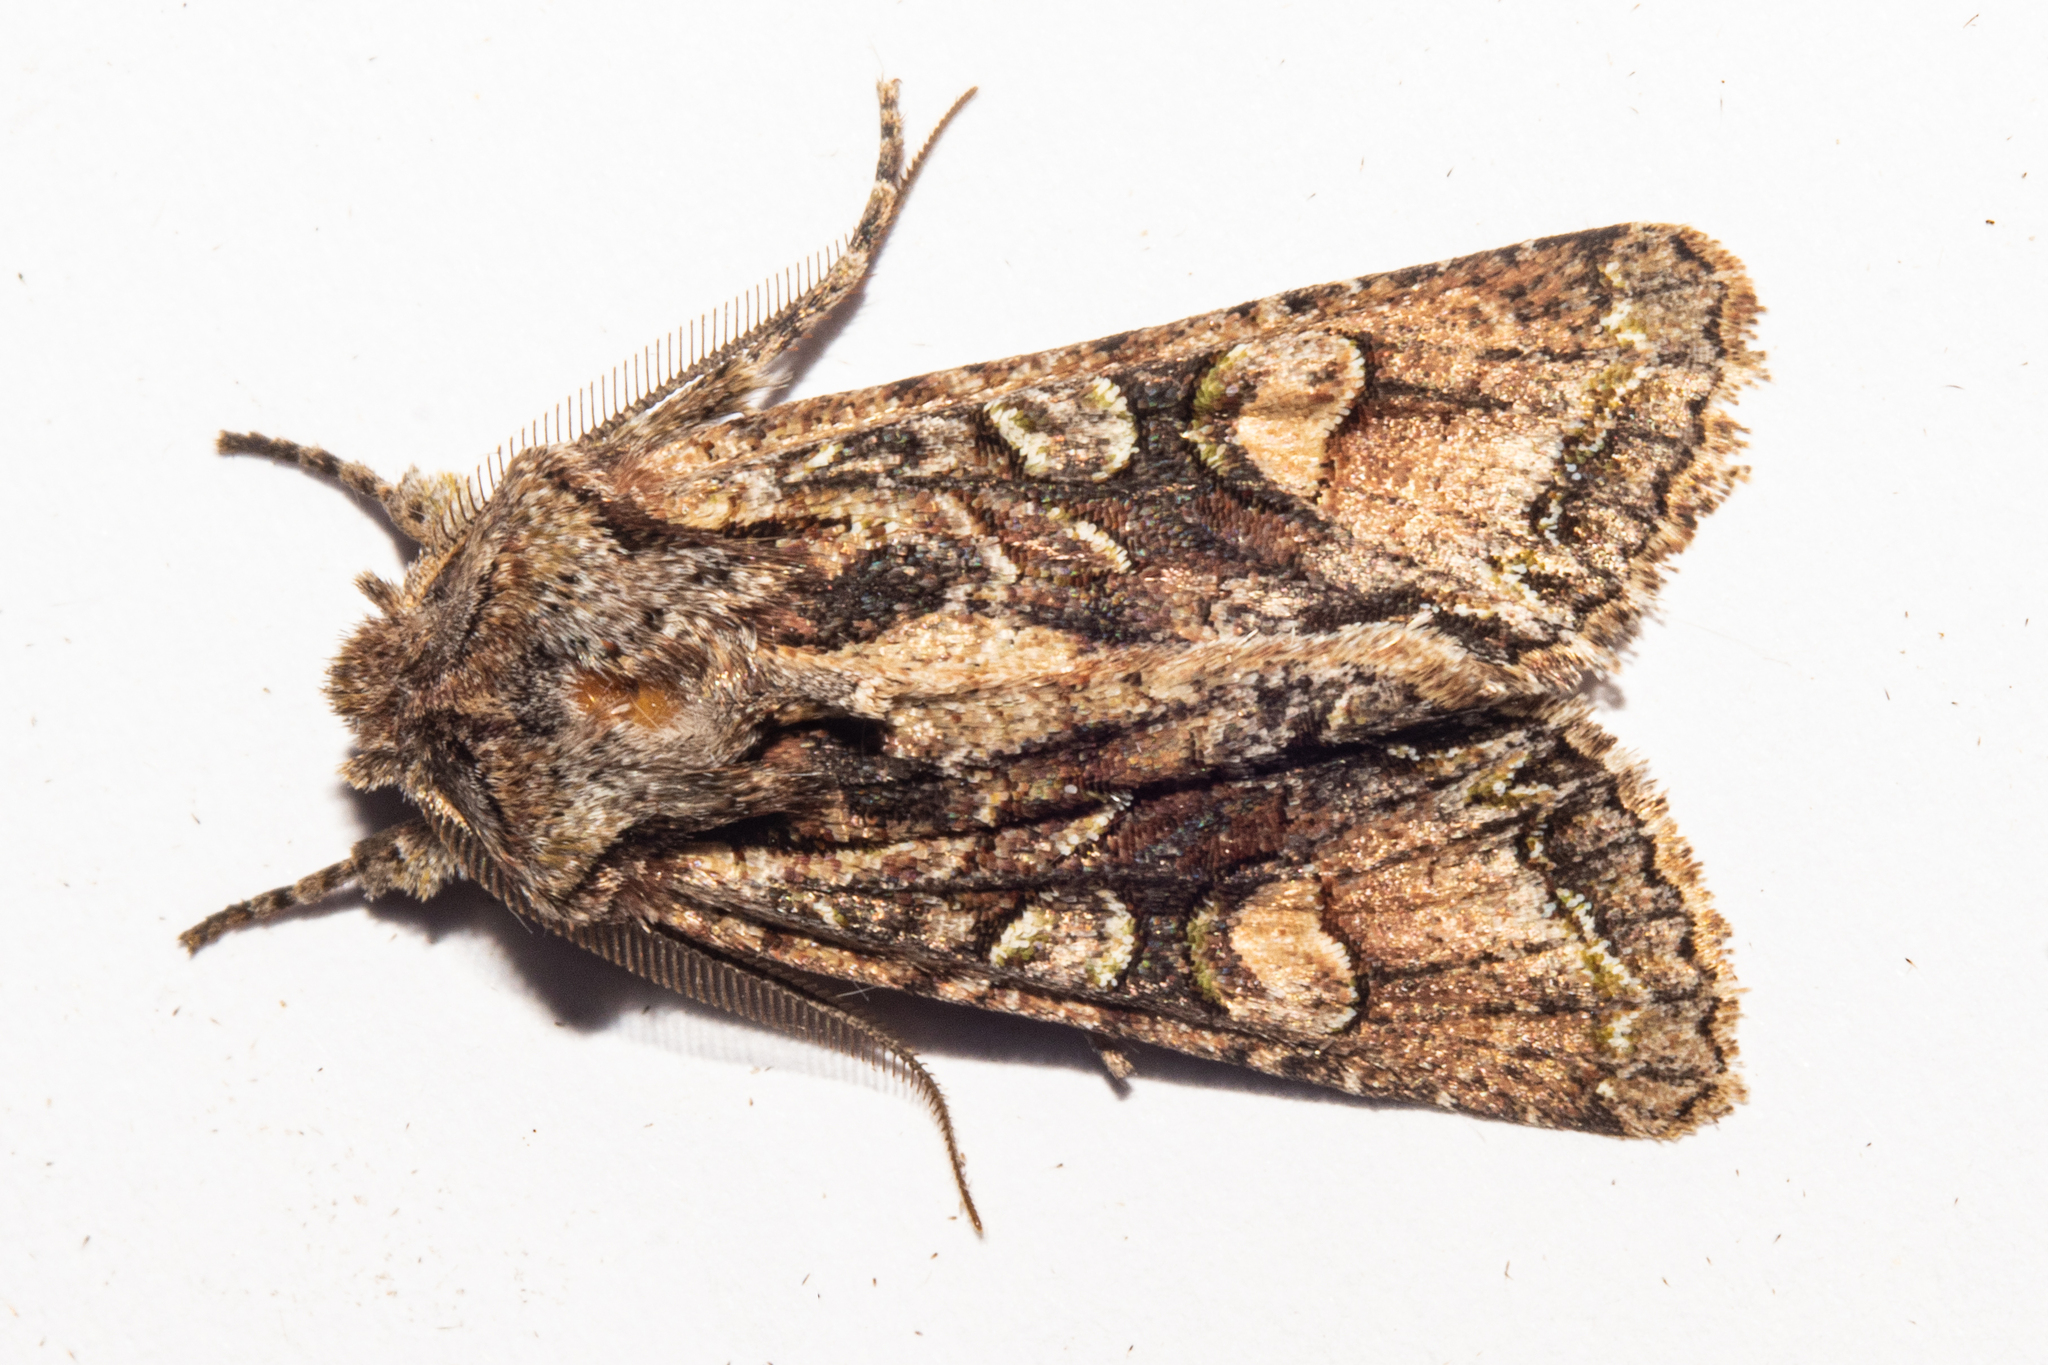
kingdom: Animalia
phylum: Arthropoda
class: Insecta
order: Lepidoptera
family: Noctuidae
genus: Ichneutica
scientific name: Ichneutica
